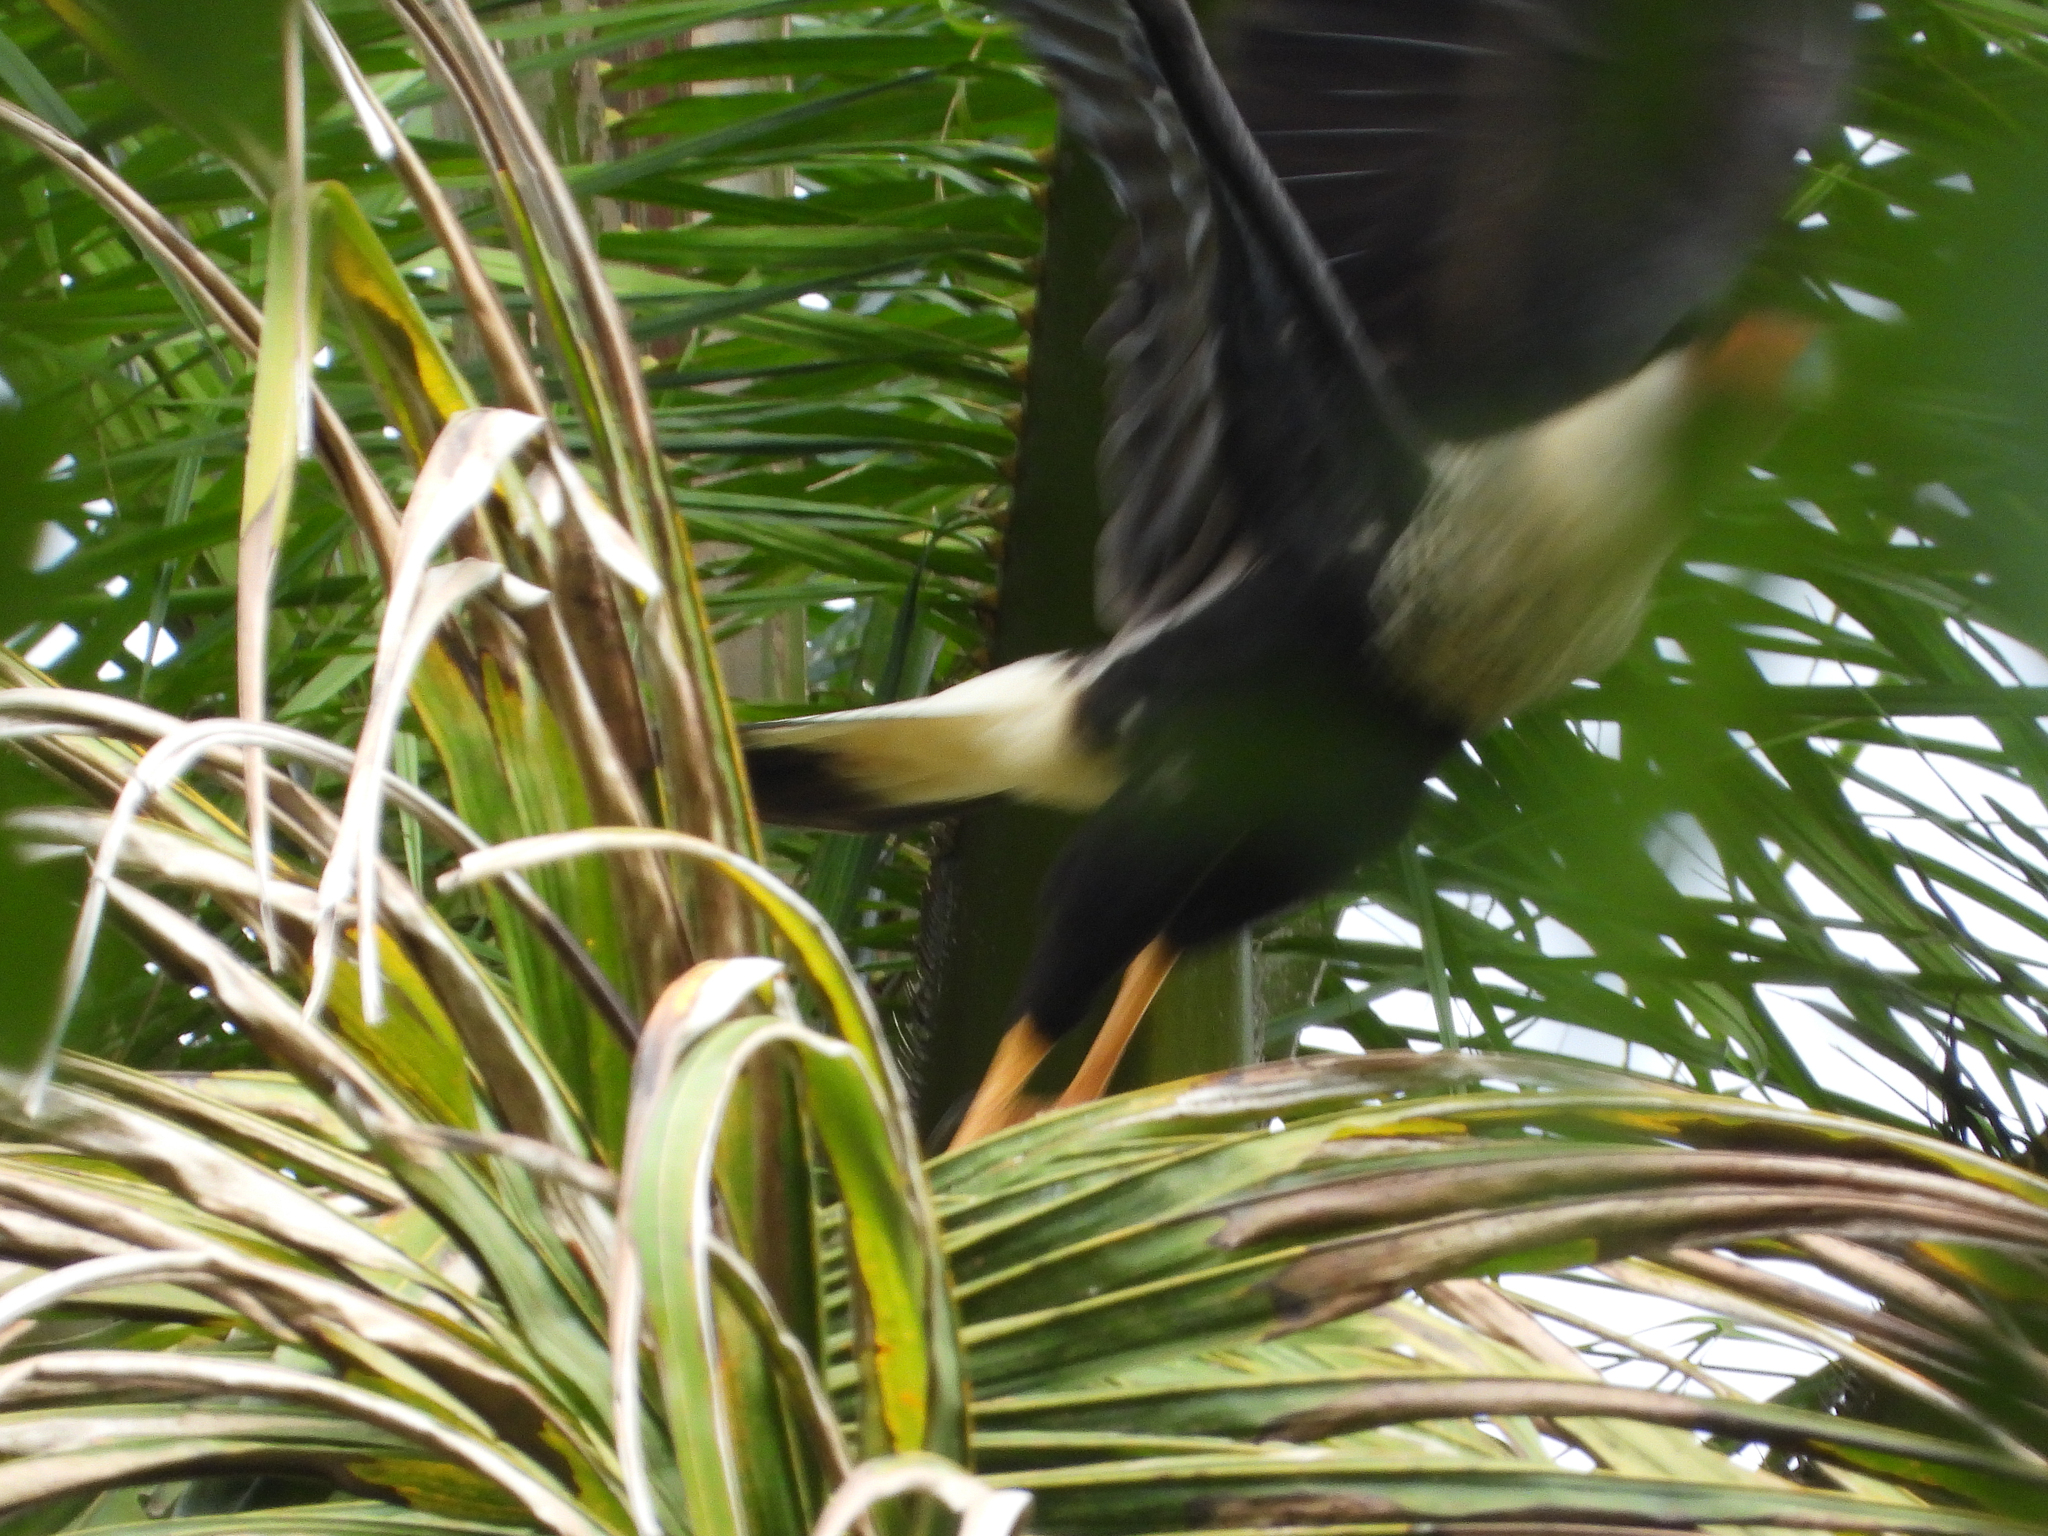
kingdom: Animalia
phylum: Chordata
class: Aves
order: Falconiformes
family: Falconidae
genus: Caracara
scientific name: Caracara plancus
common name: Southern caracara
